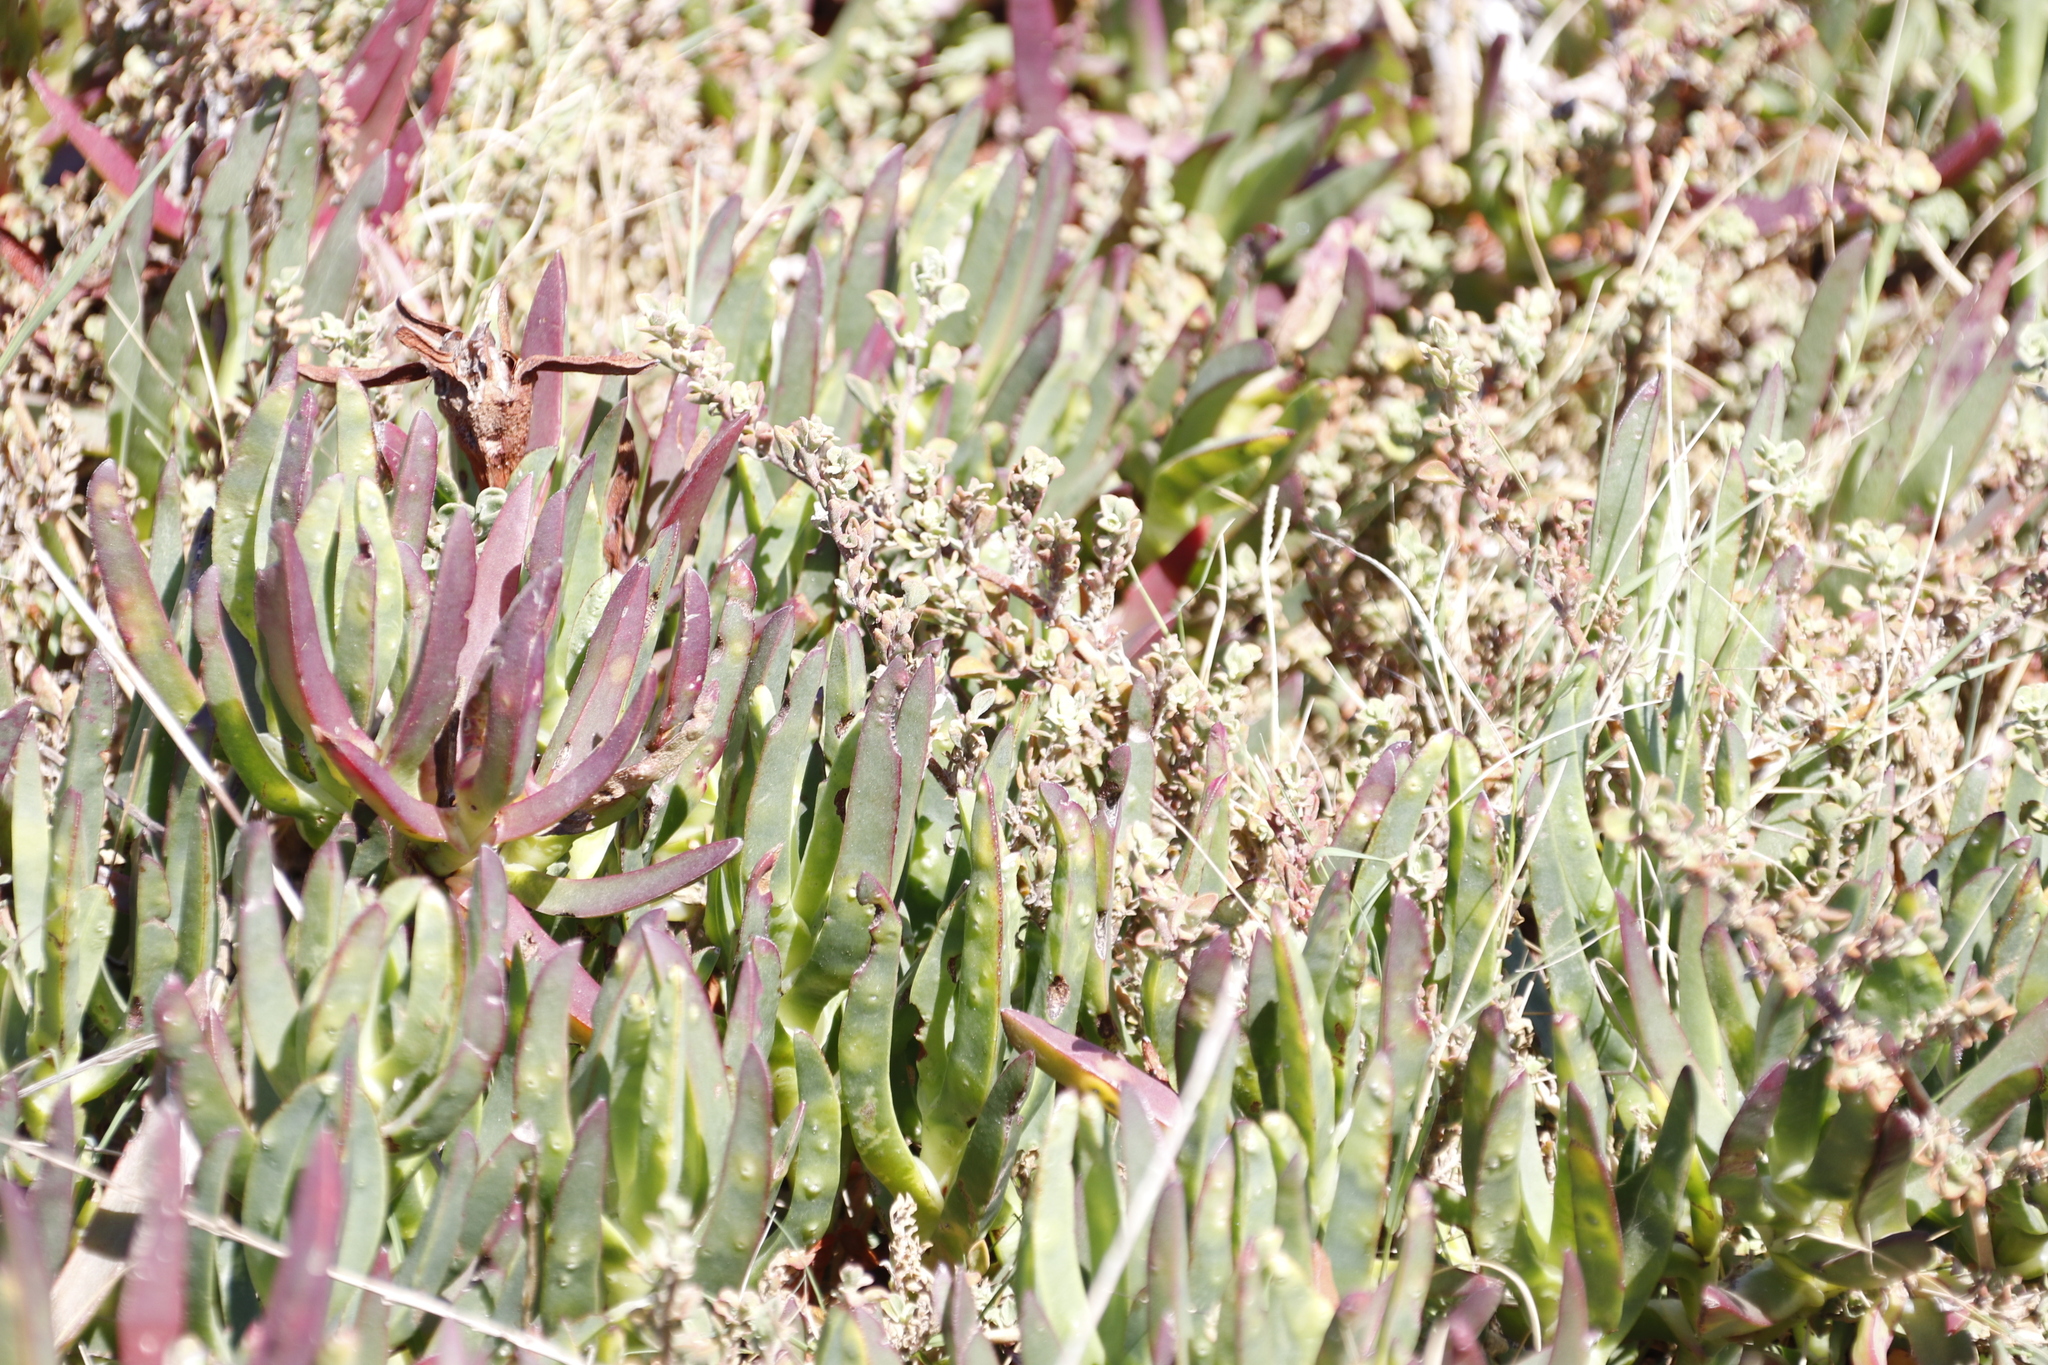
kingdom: Plantae
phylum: Tracheophyta
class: Magnoliopsida
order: Caryophyllales
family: Aizoaceae
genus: Carpobrotus
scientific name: Carpobrotus edulis
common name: Hottentot-fig
